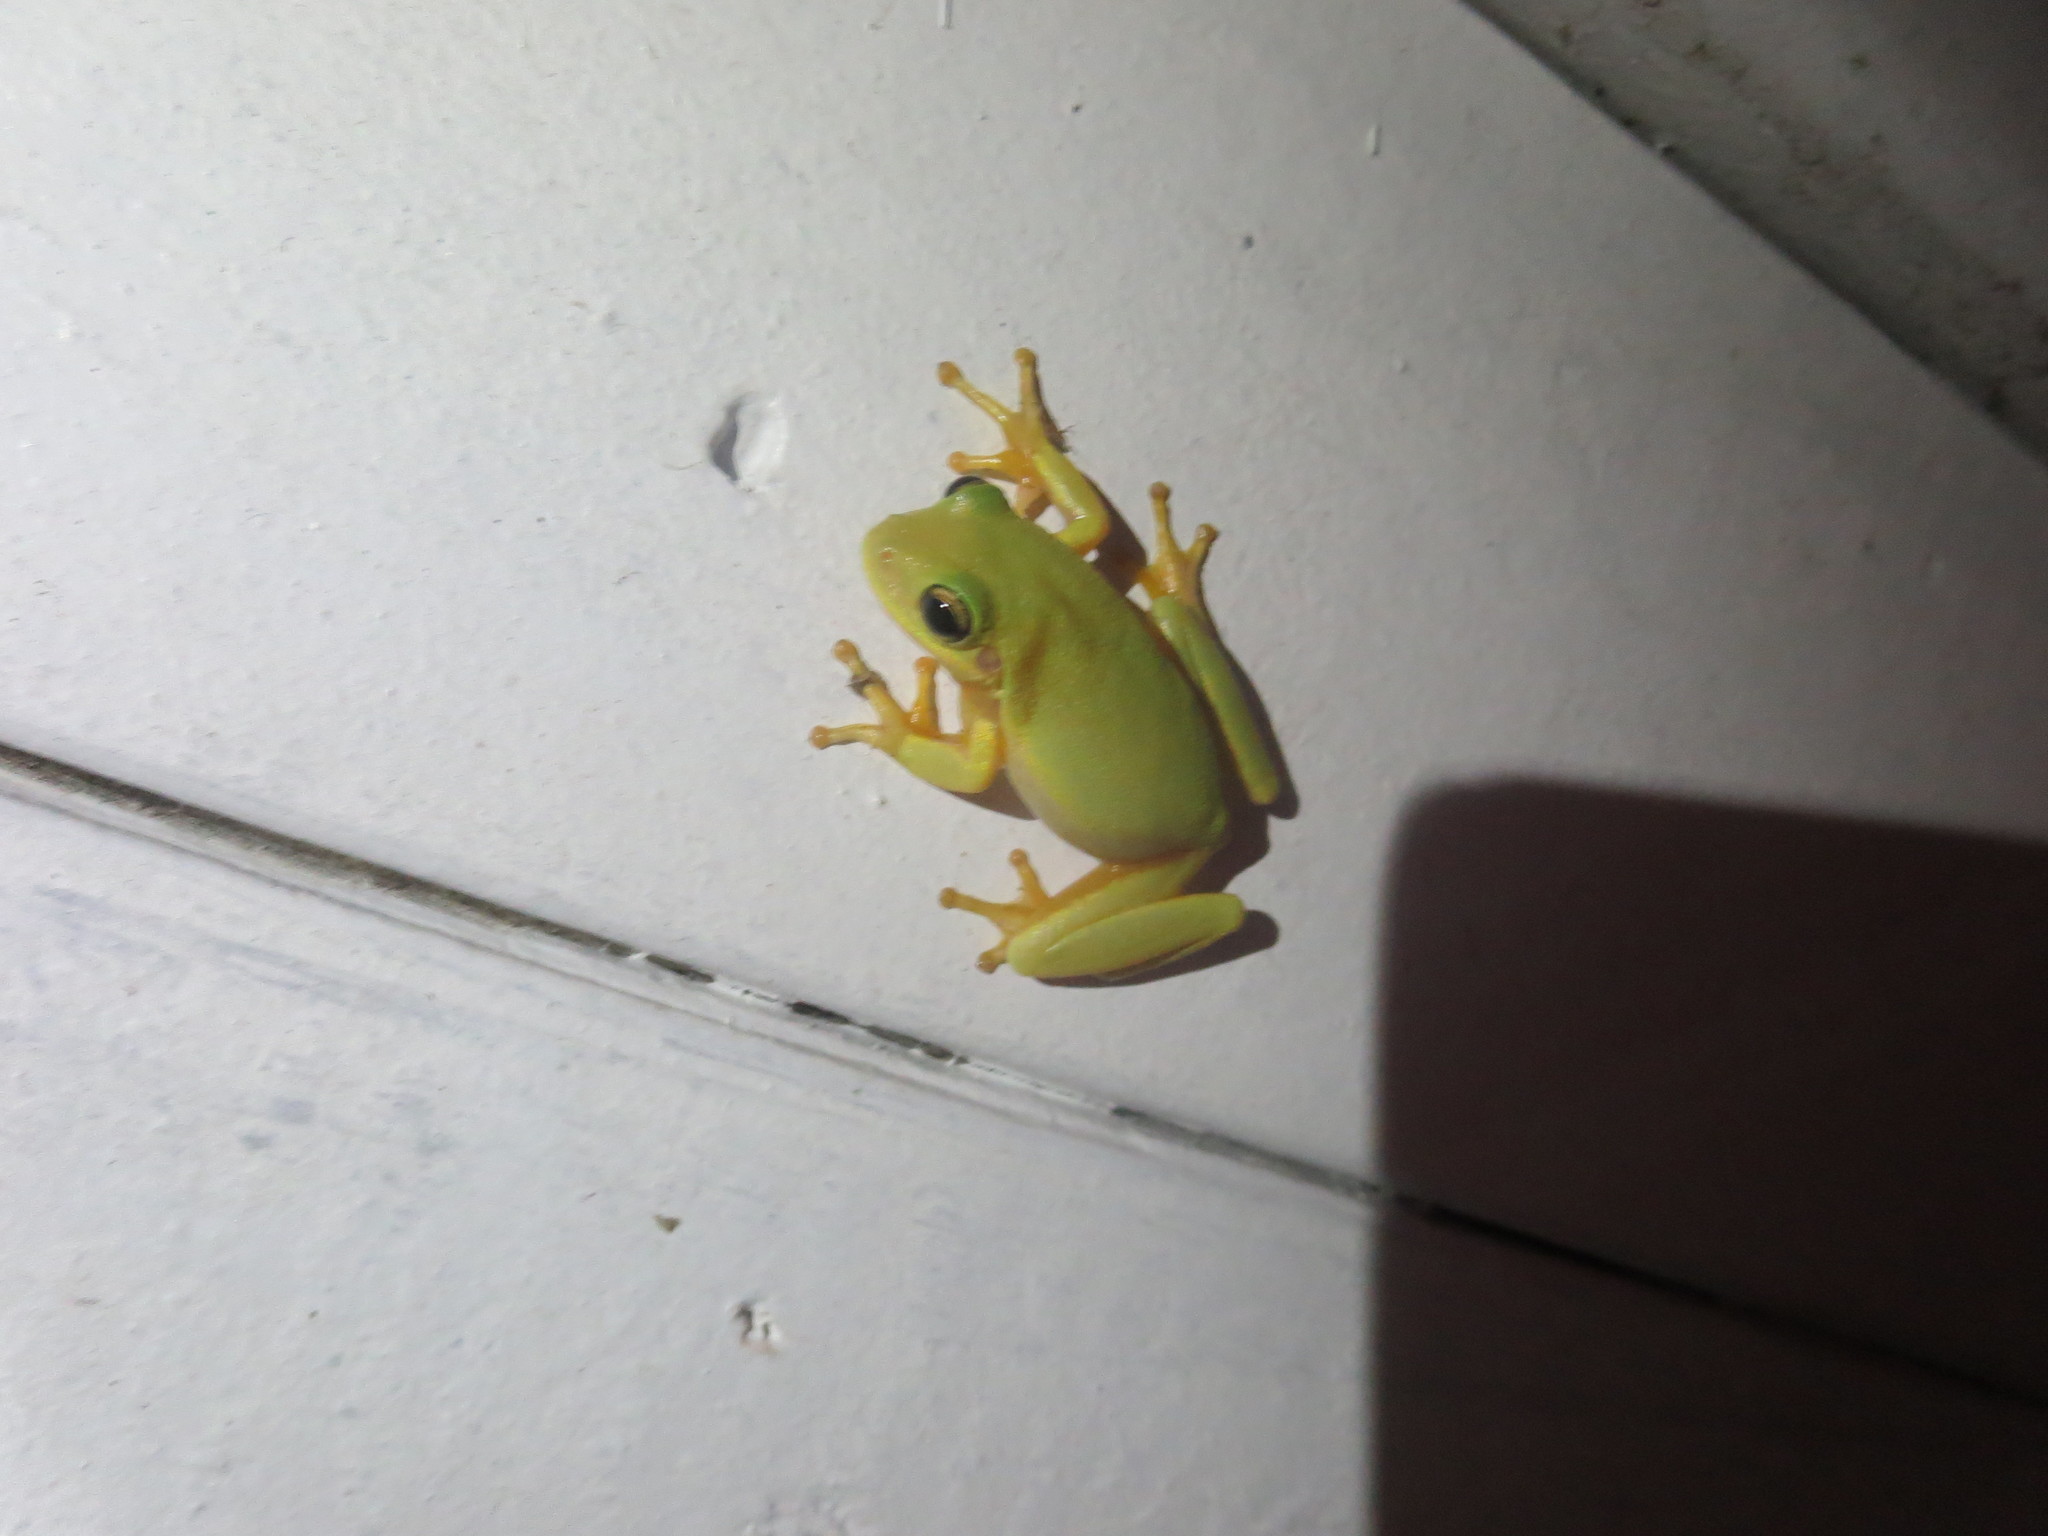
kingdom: Animalia
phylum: Chordata
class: Amphibia
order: Anura
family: Hylidae
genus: Dryophytes
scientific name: Dryophytes squirellus
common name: Squirrel treefrog
